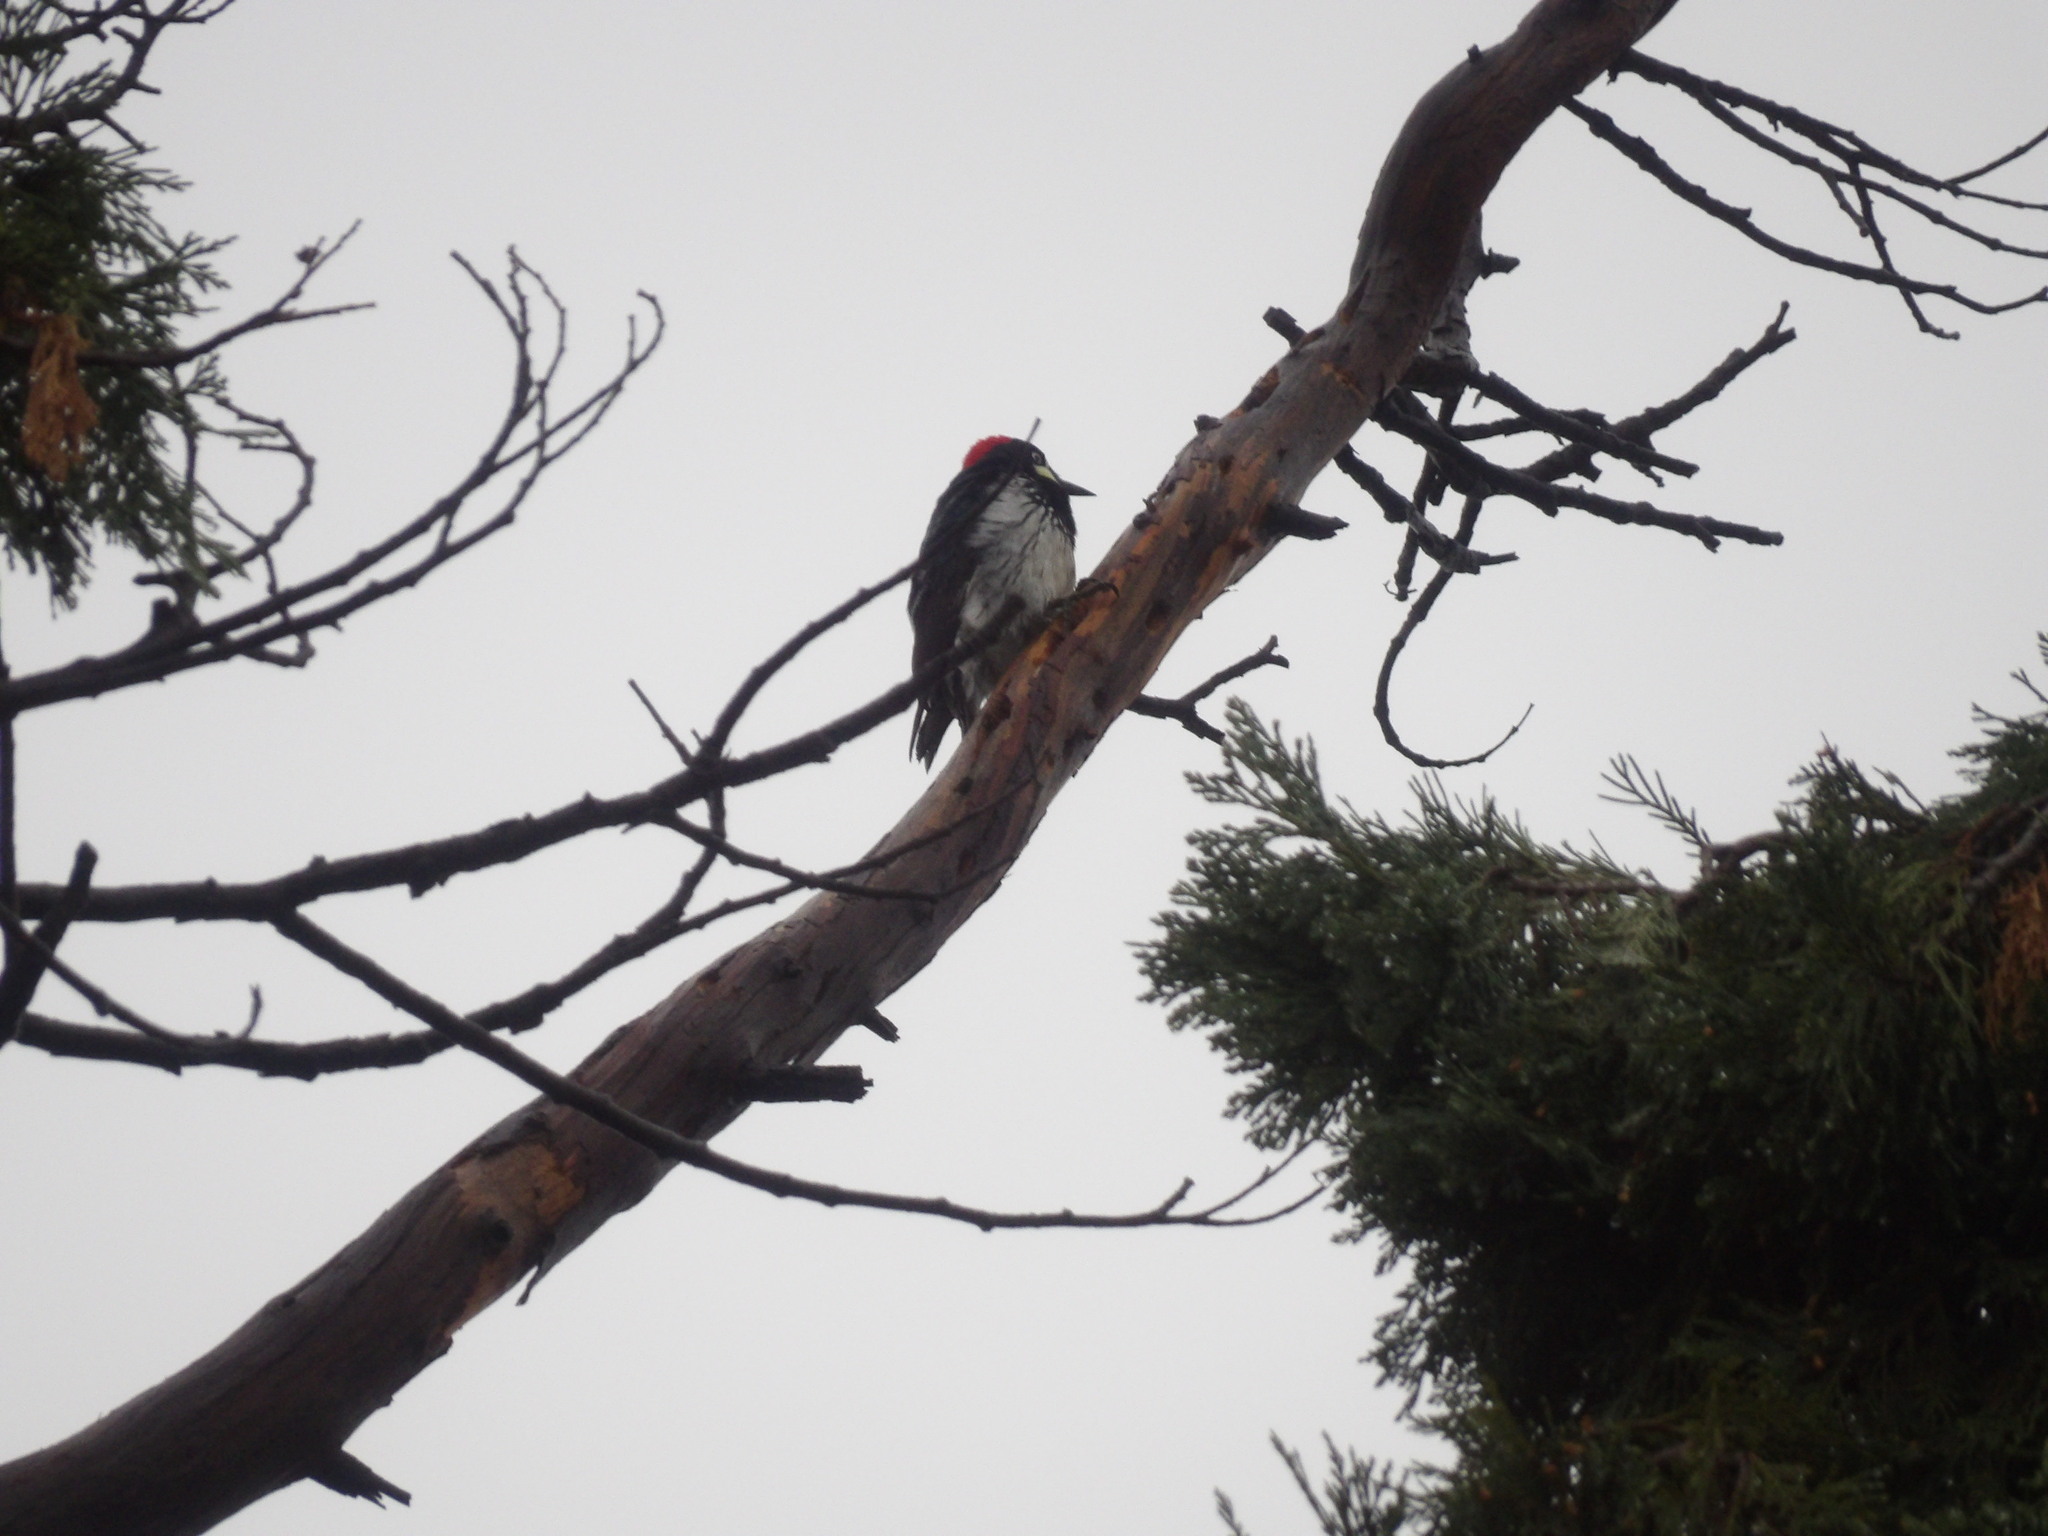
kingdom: Animalia
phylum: Chordata
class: Aves
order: Piciformes
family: Picidae
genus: Melanerpes
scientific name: Melanerpes formicivorus
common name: Acorn woodpecker
